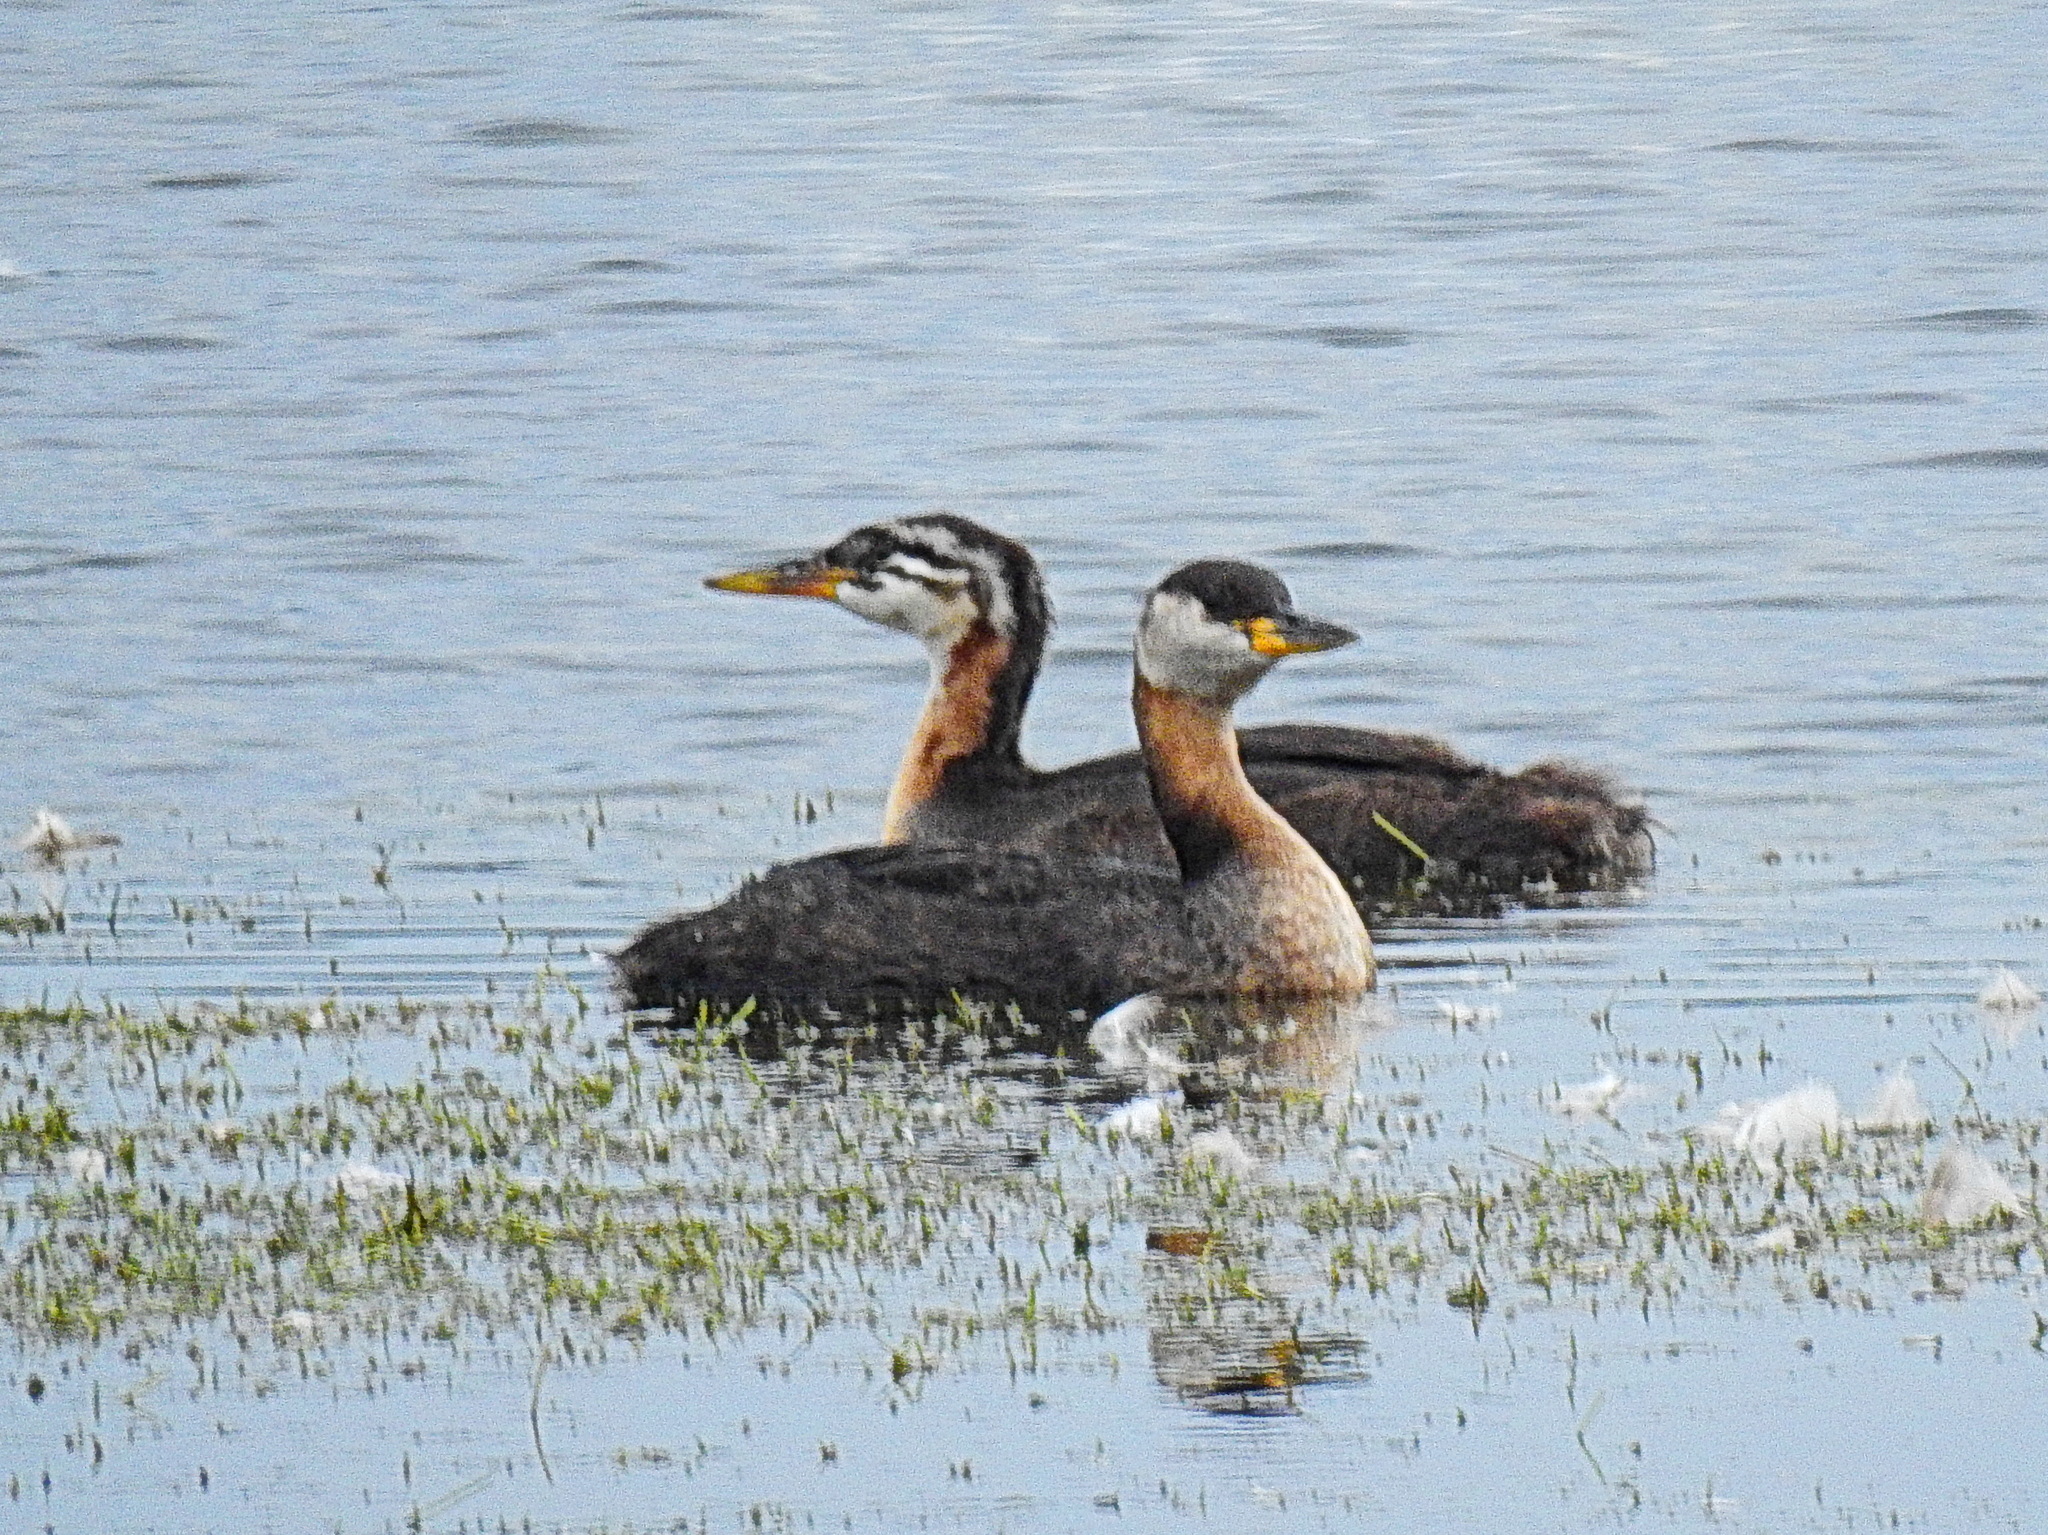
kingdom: Animalia
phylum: Chordata
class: Aves
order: Podicipediformes
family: Podicipedidae
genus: Podiceps
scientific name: Podiceps grisegena
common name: Red-necked grebe
